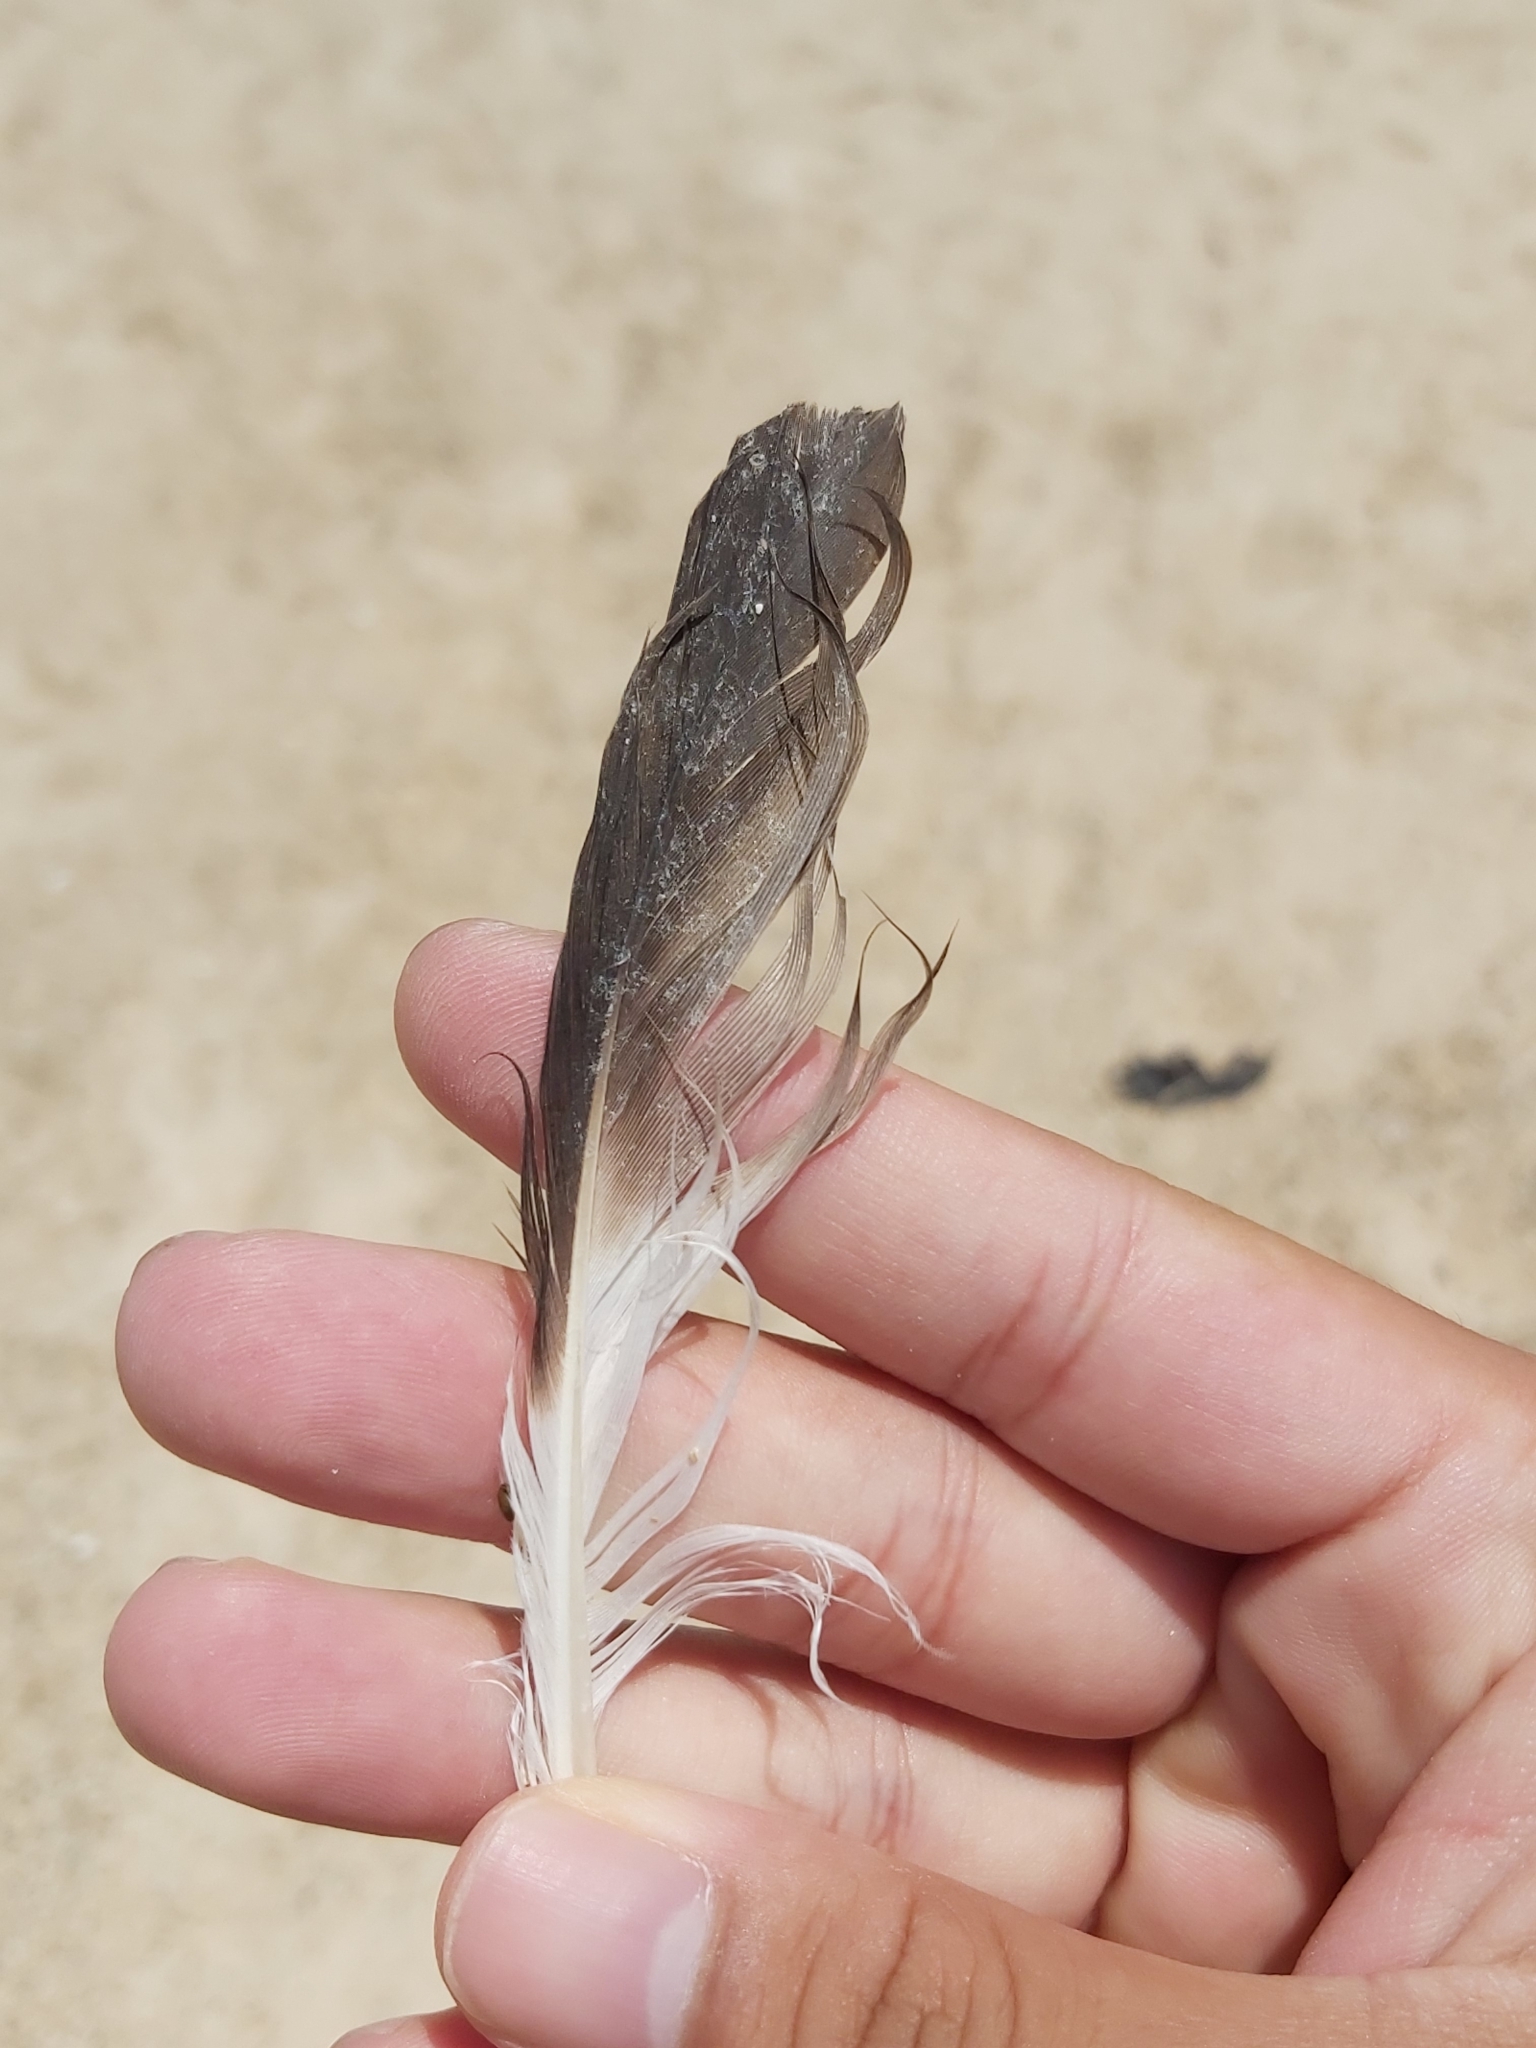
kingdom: Animalia
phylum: Chordata
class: Aves
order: Charadriiformes
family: Stercorariidae
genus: Stercorarius
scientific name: Stercorarius pomarinus
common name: Pomarine jaeger
